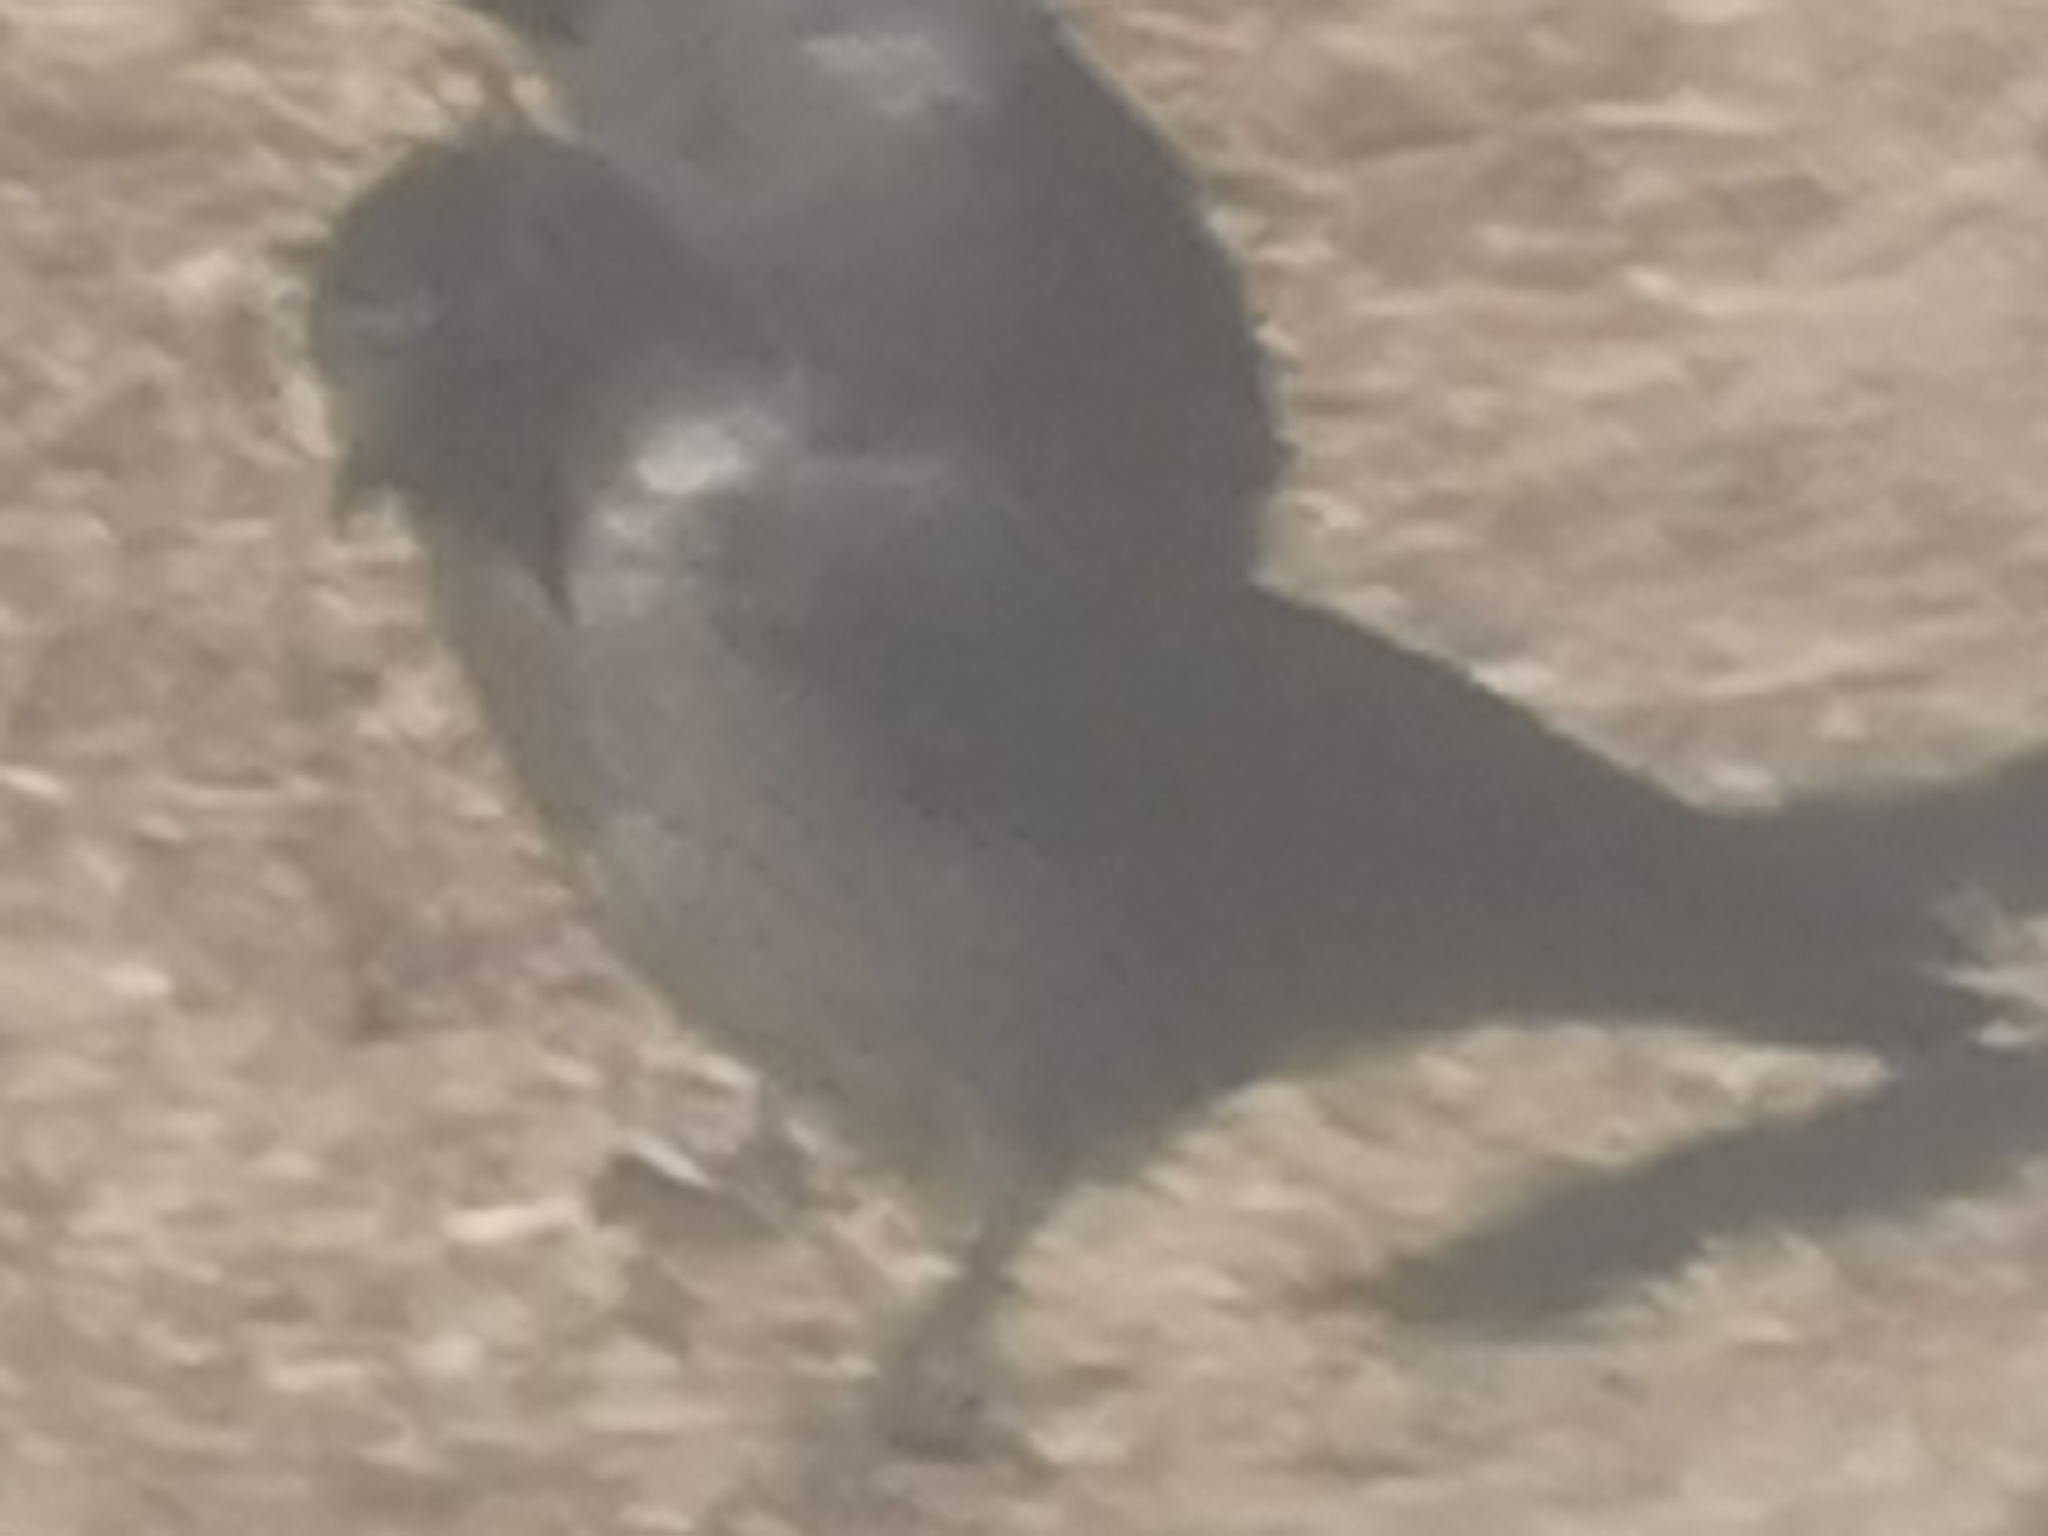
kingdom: Animalia
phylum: Chordata
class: Aves
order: Passeriformes
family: Corvidae
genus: Coloeus
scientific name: Coloeus monedula
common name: Western jackdaw
